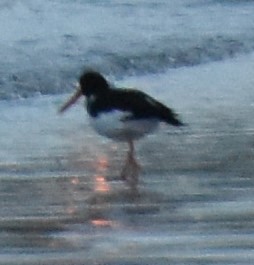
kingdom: Animalia
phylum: Chordata
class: Aves
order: Charadriiformes
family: Haematopodidae
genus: Haematopus
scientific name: Haematopus ostralegus
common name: Eurasian oystercatcher
